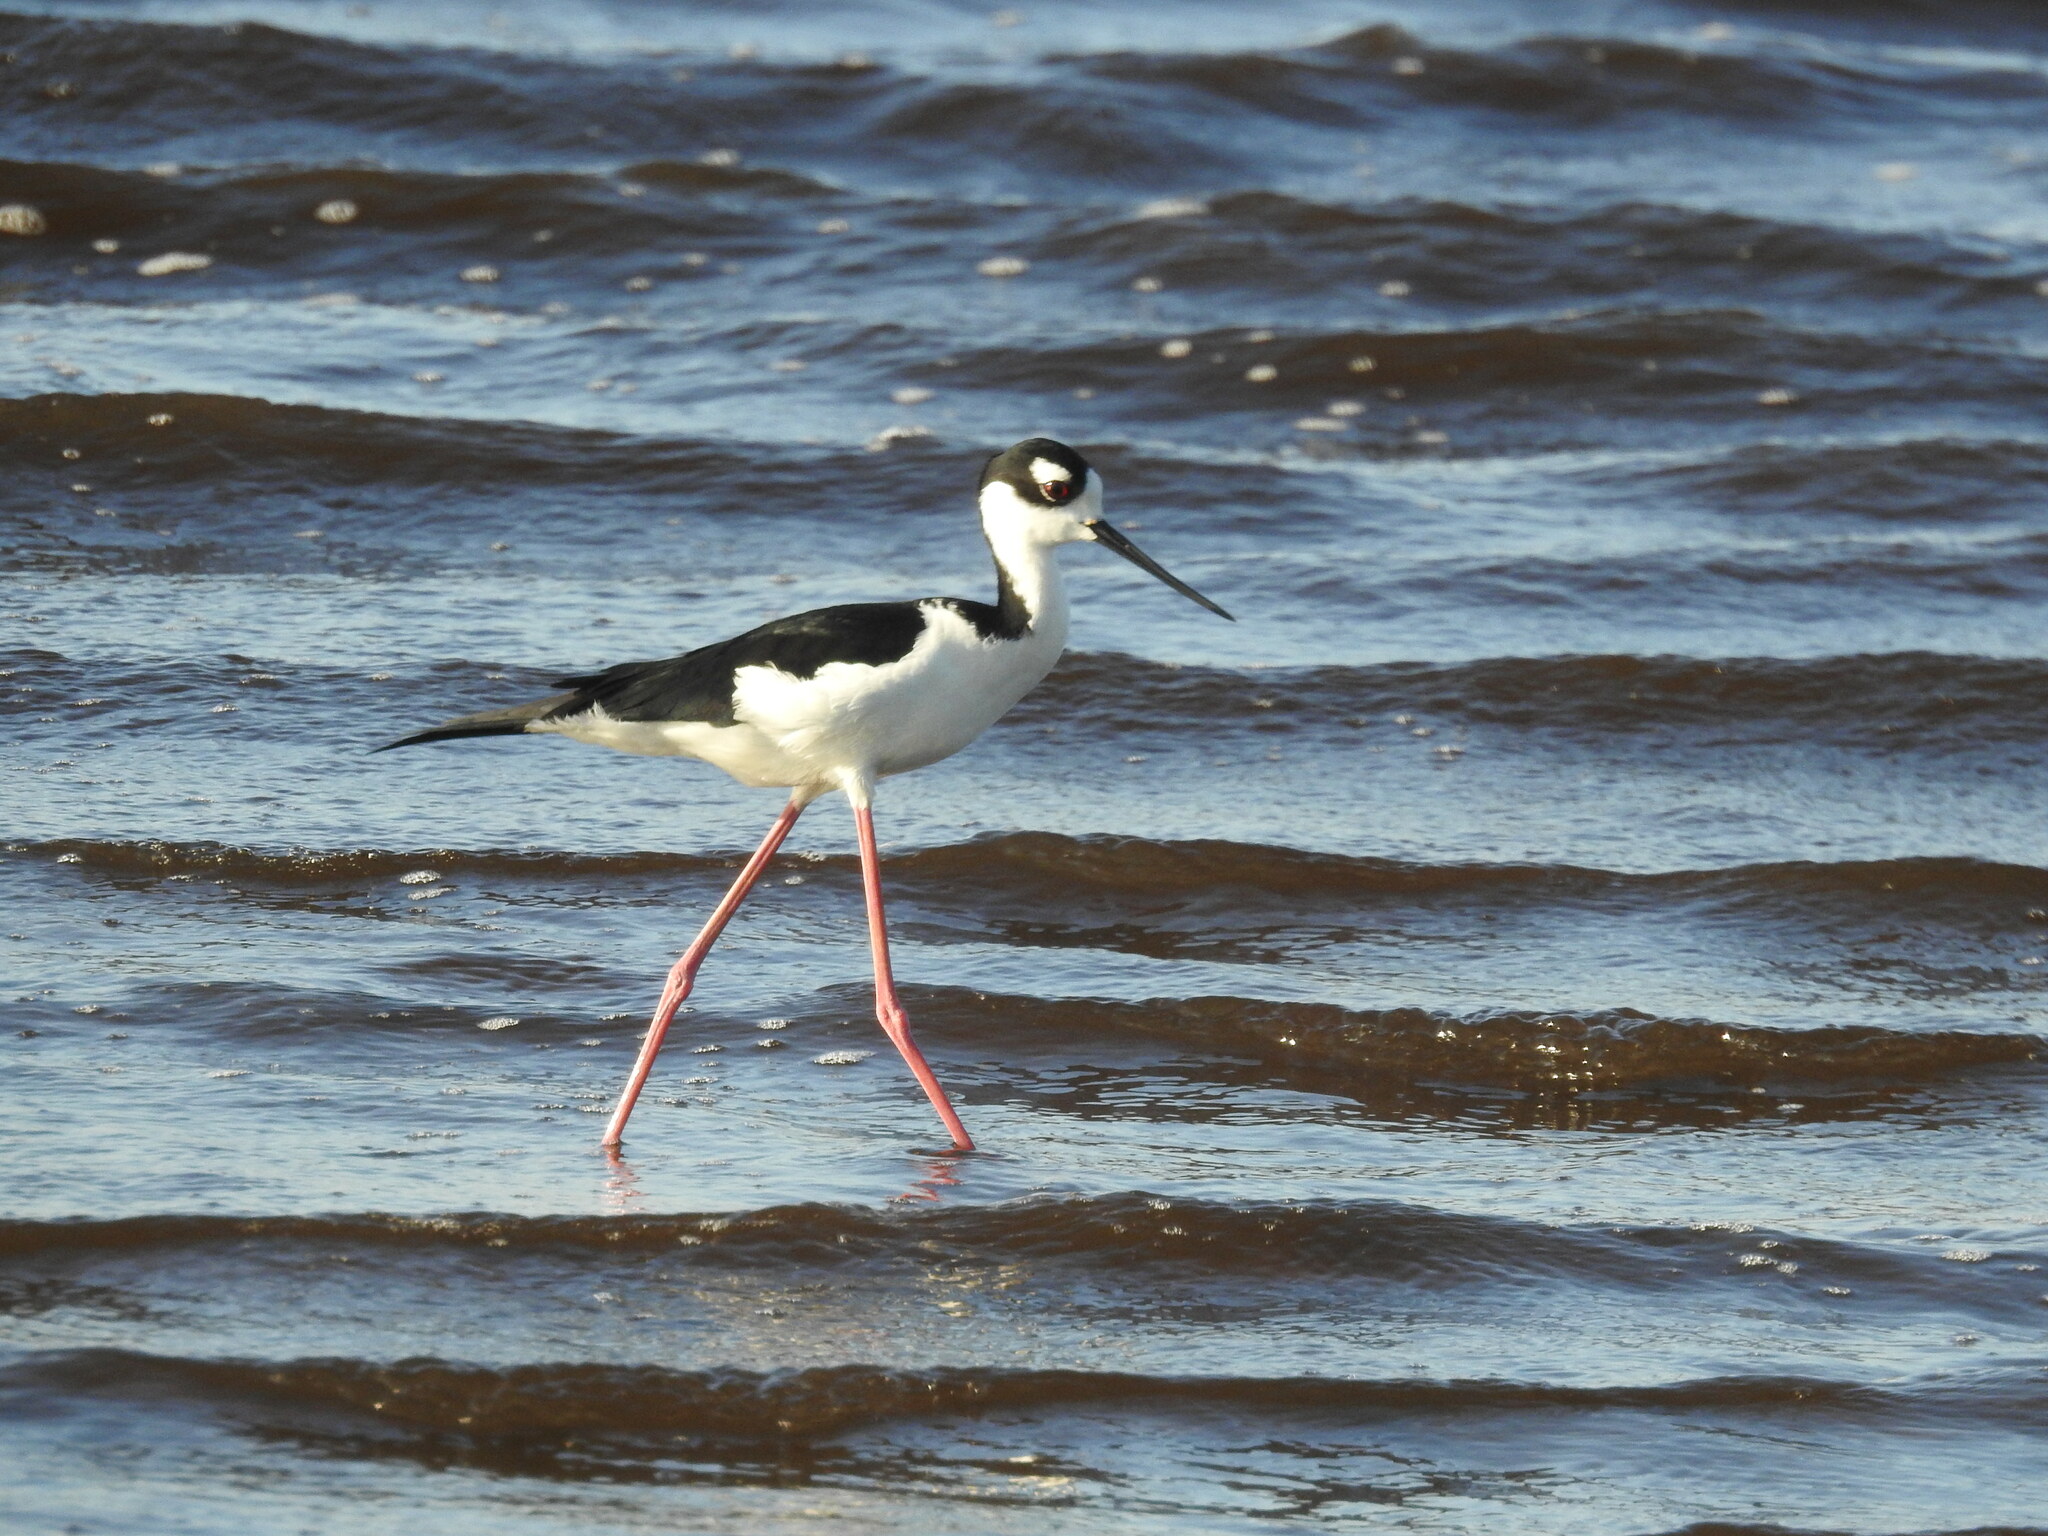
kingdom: Animalia
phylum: Chordata
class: Aves
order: Charadriiformes
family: Recurvirostridae
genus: Himantopus
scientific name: Himantopus mexicanus
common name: Black-necked stilt
